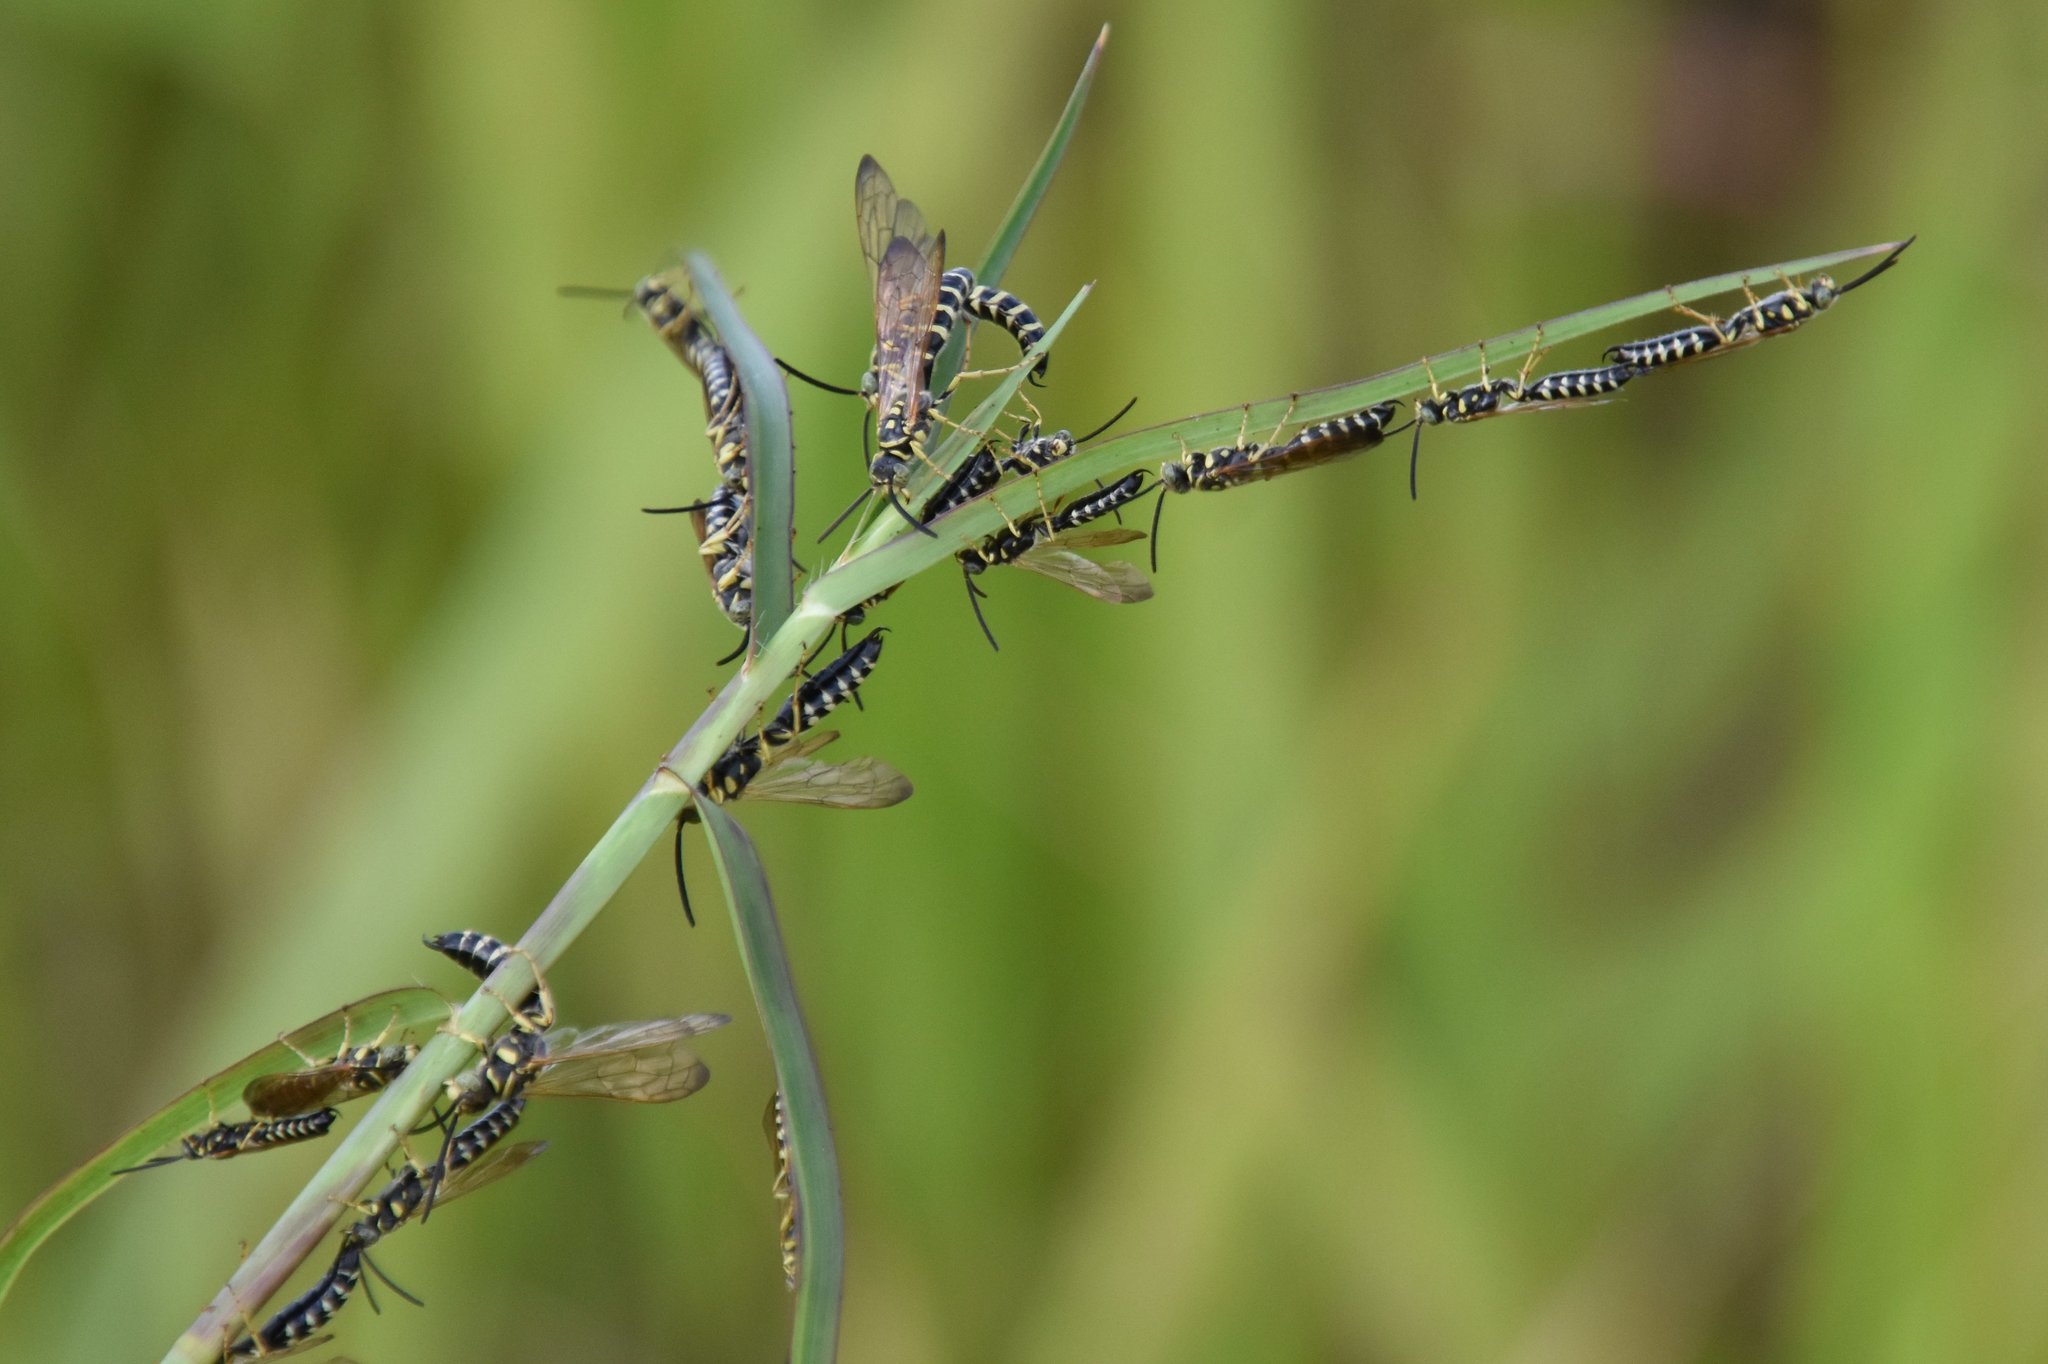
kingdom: Animalia
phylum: Arthropoda
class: Insecta
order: Hymenoptera
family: Tiphiidae
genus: Myzinum
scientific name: Myzinum
